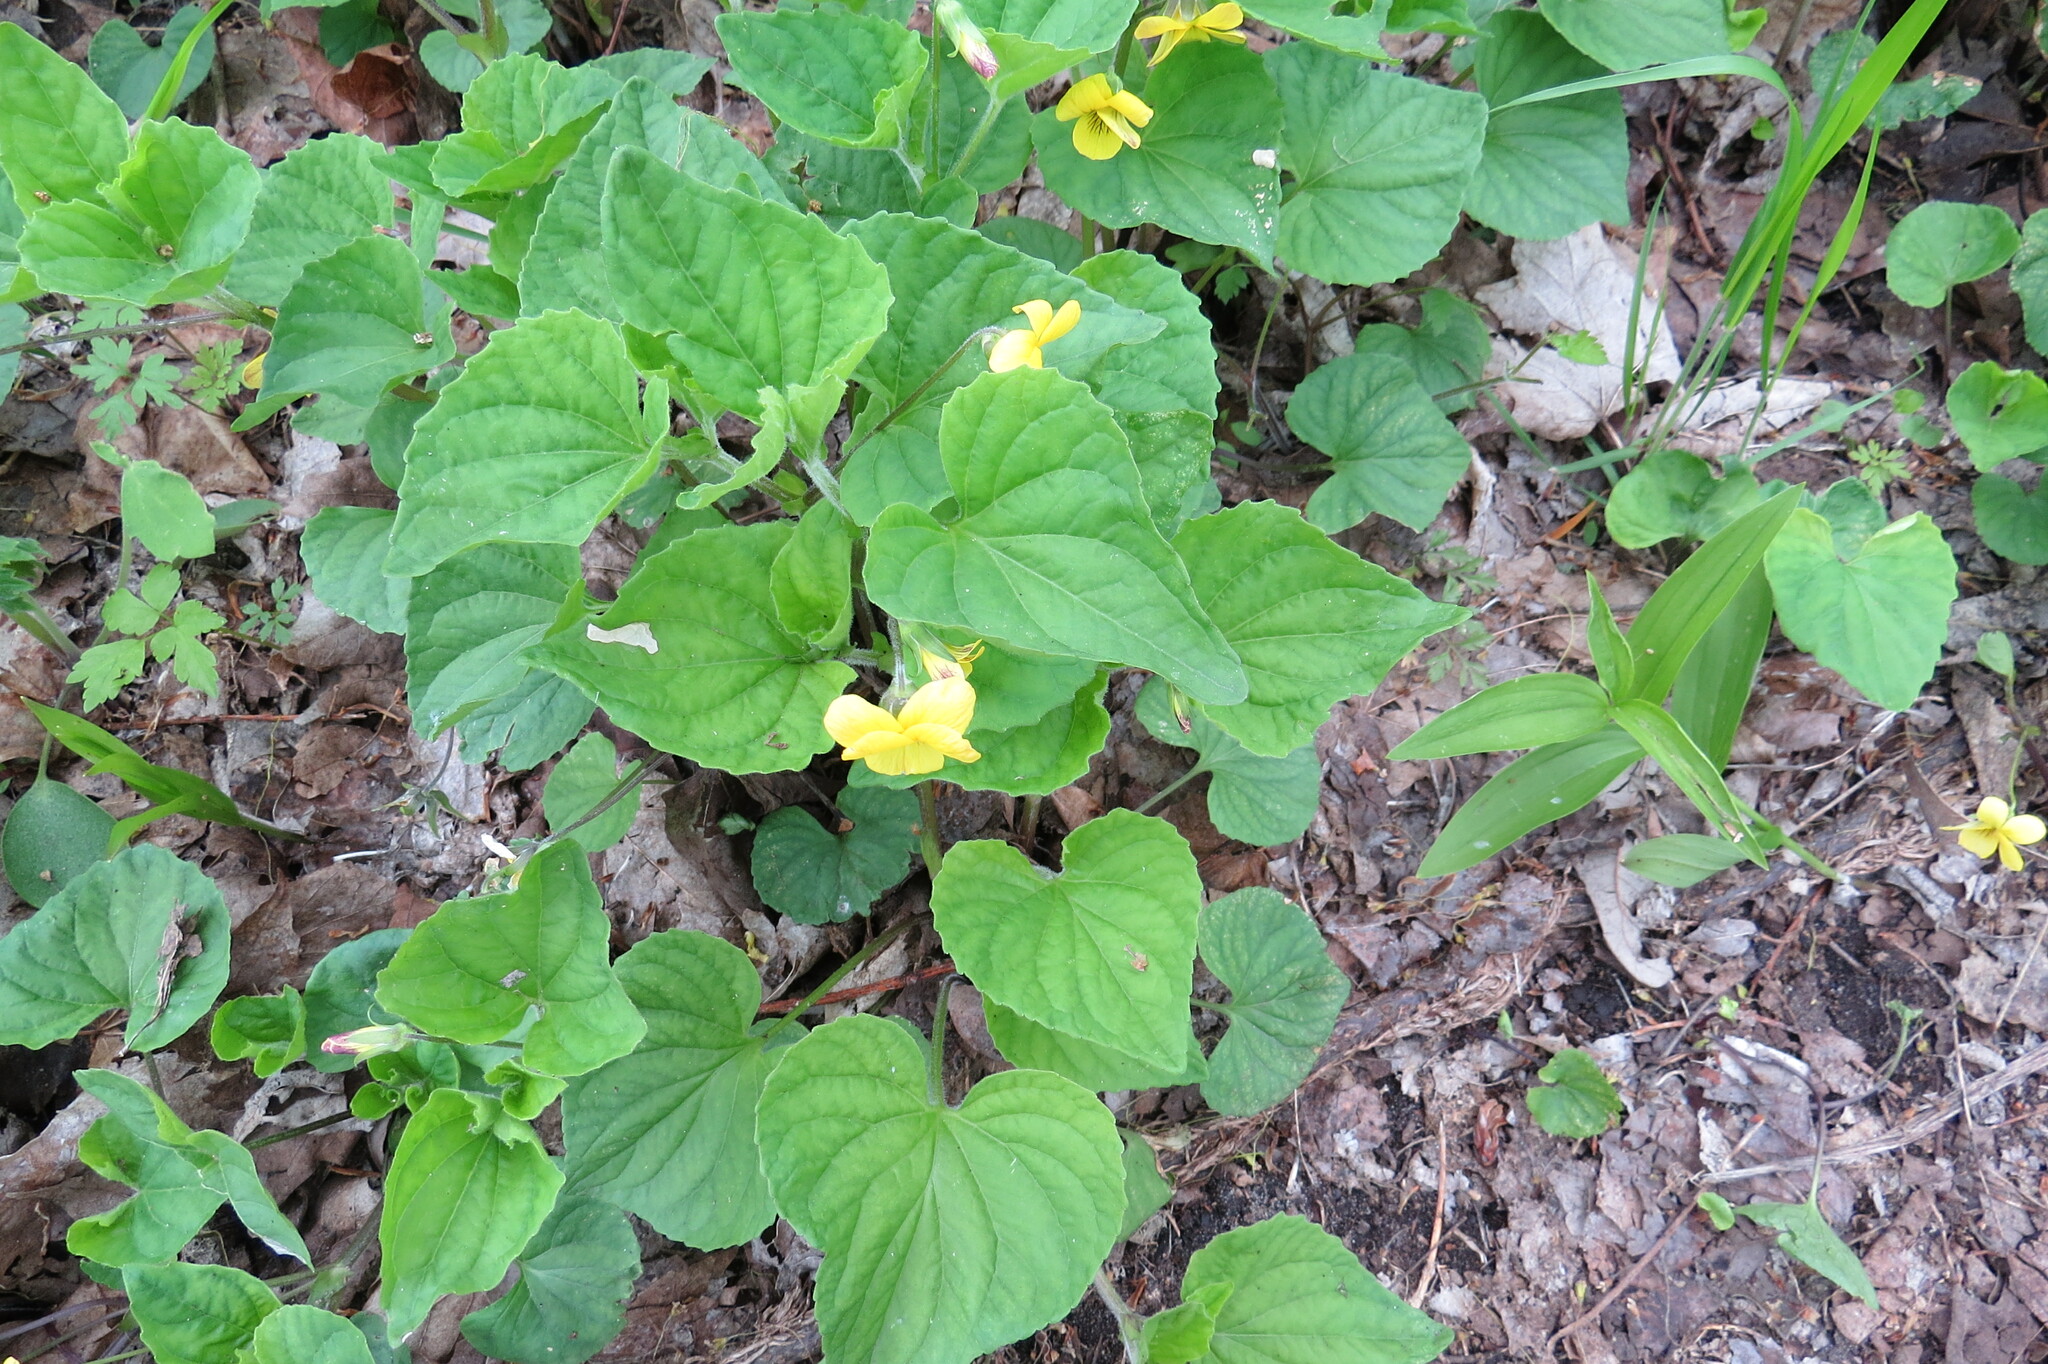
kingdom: Plantae
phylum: Tracheophyta
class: Magnoliopsida
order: Malpighiales
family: Violaceae
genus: Viola
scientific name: Viola eriocarpa
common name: Smooth yellow violet
